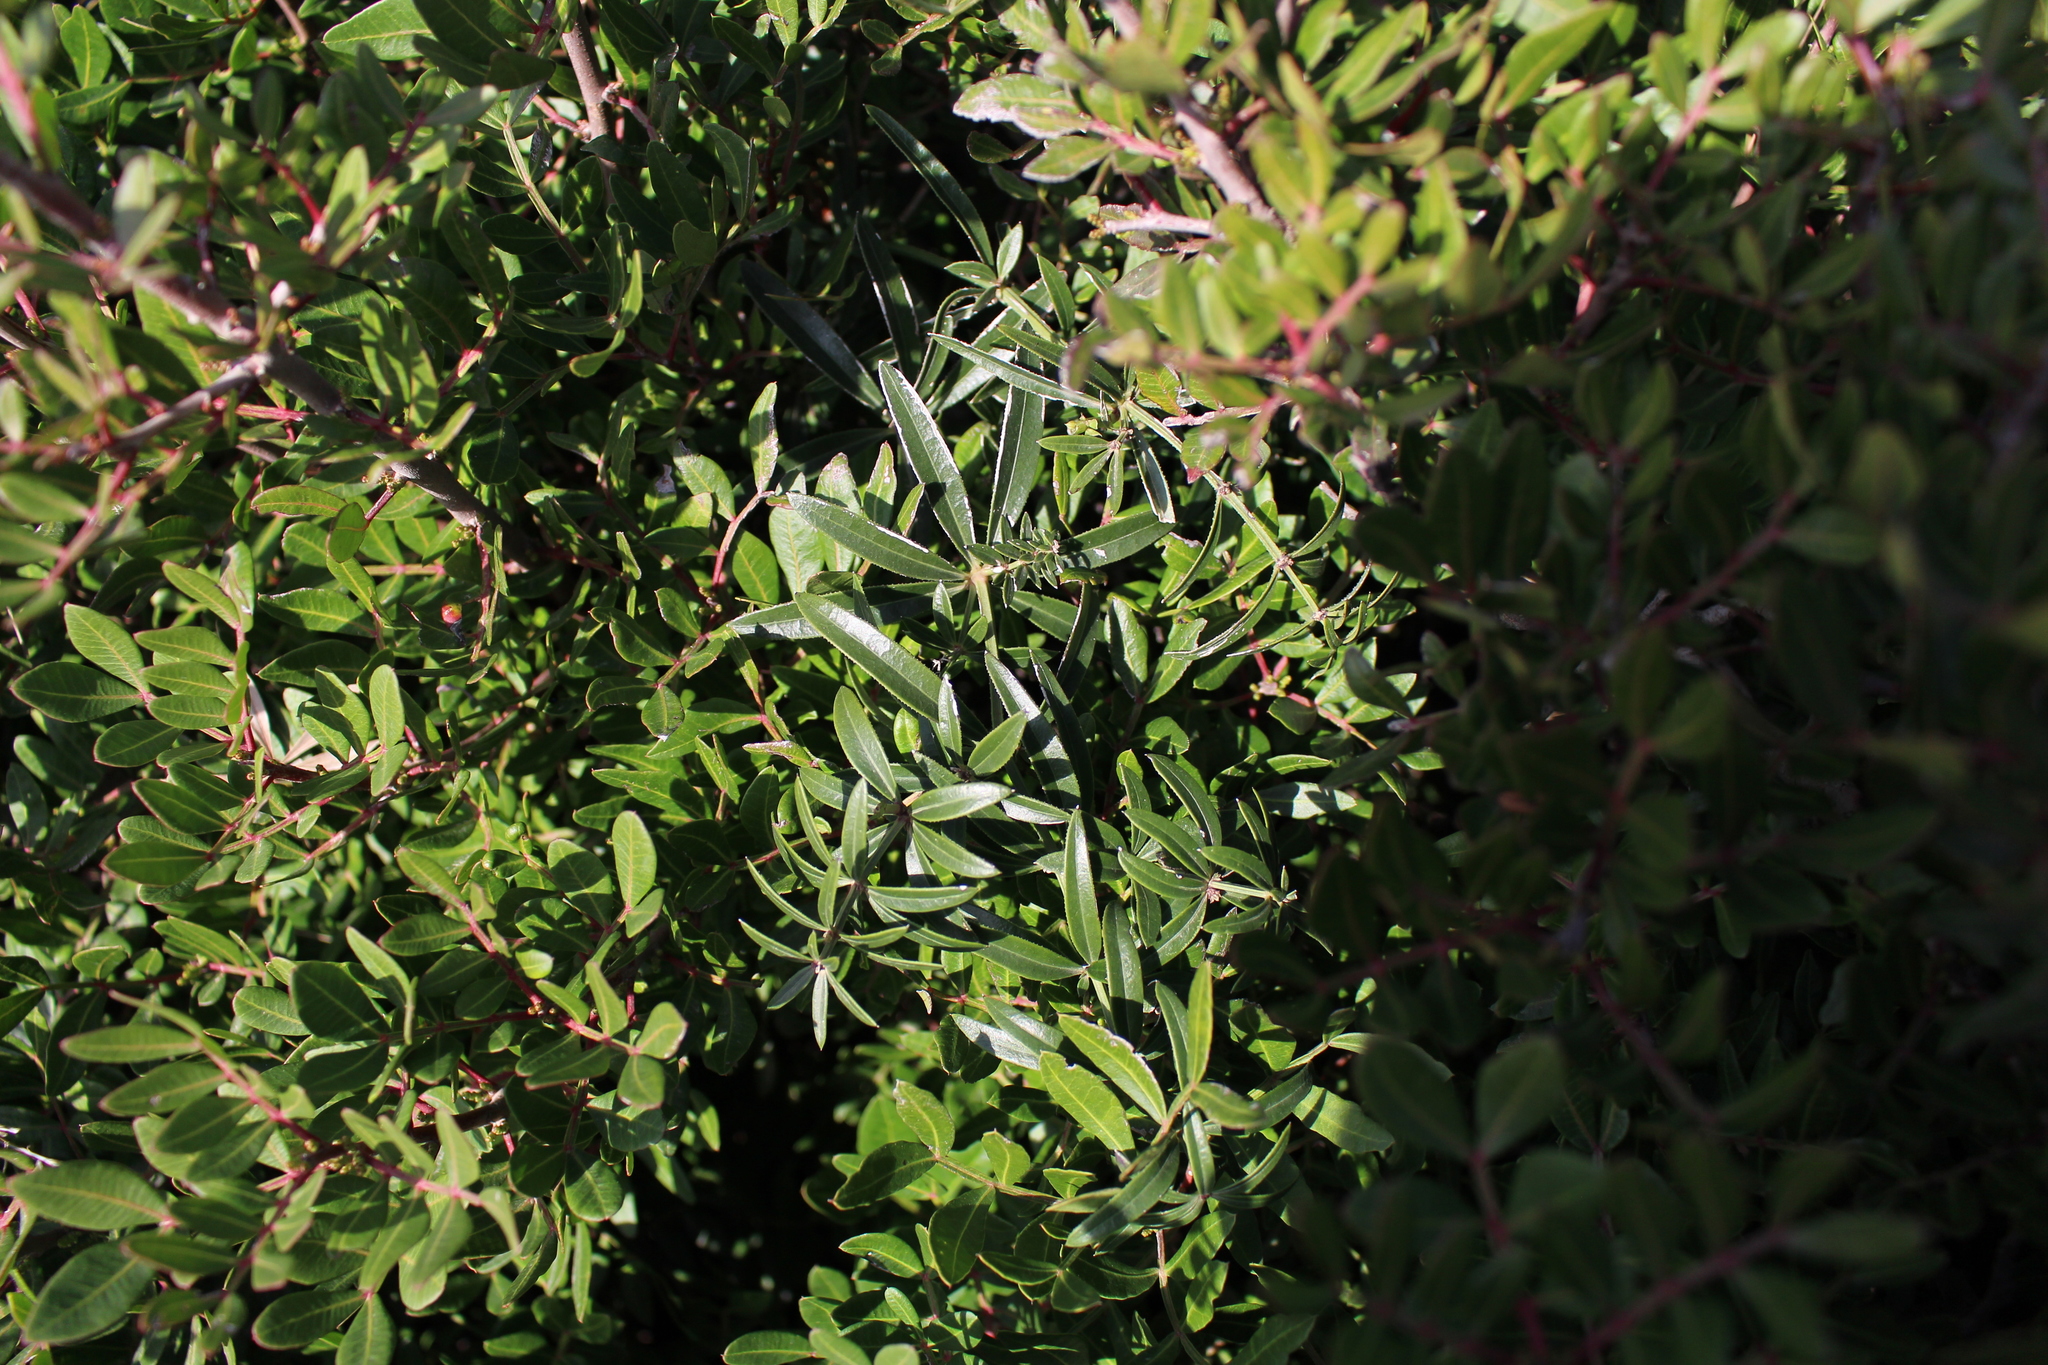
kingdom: Plantae
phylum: Tracheophyta
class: Magnoliopsida
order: Gentianales
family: Rubiaceae
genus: Rubia
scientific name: Rubia peregrina
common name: Wild madder
